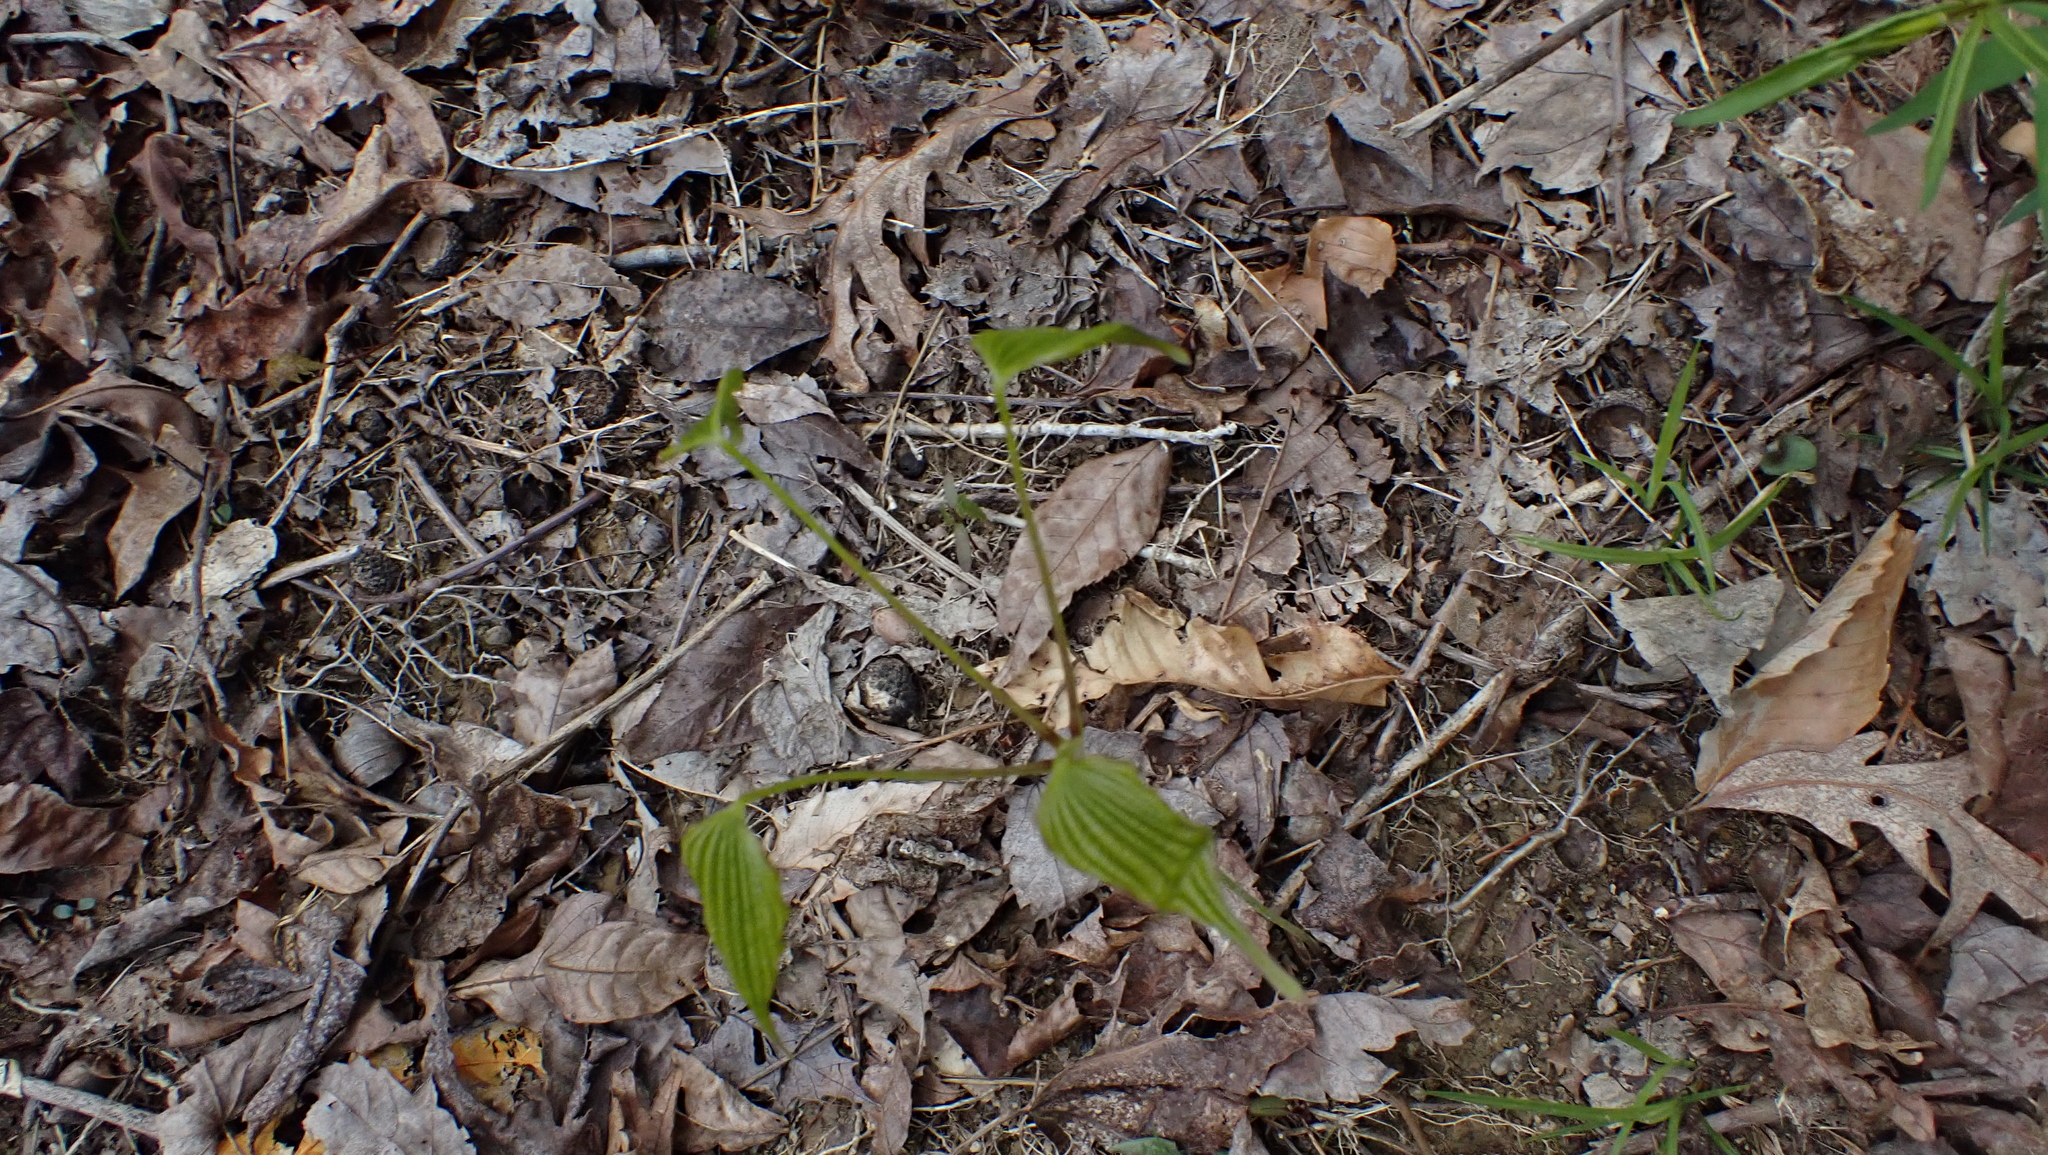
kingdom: Plantae
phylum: Tracheophyta
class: Liliopsida
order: Dioscoreales
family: Dioscoreaceae
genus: Dioscorea
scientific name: Dioscorea villosa
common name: Wild yam
